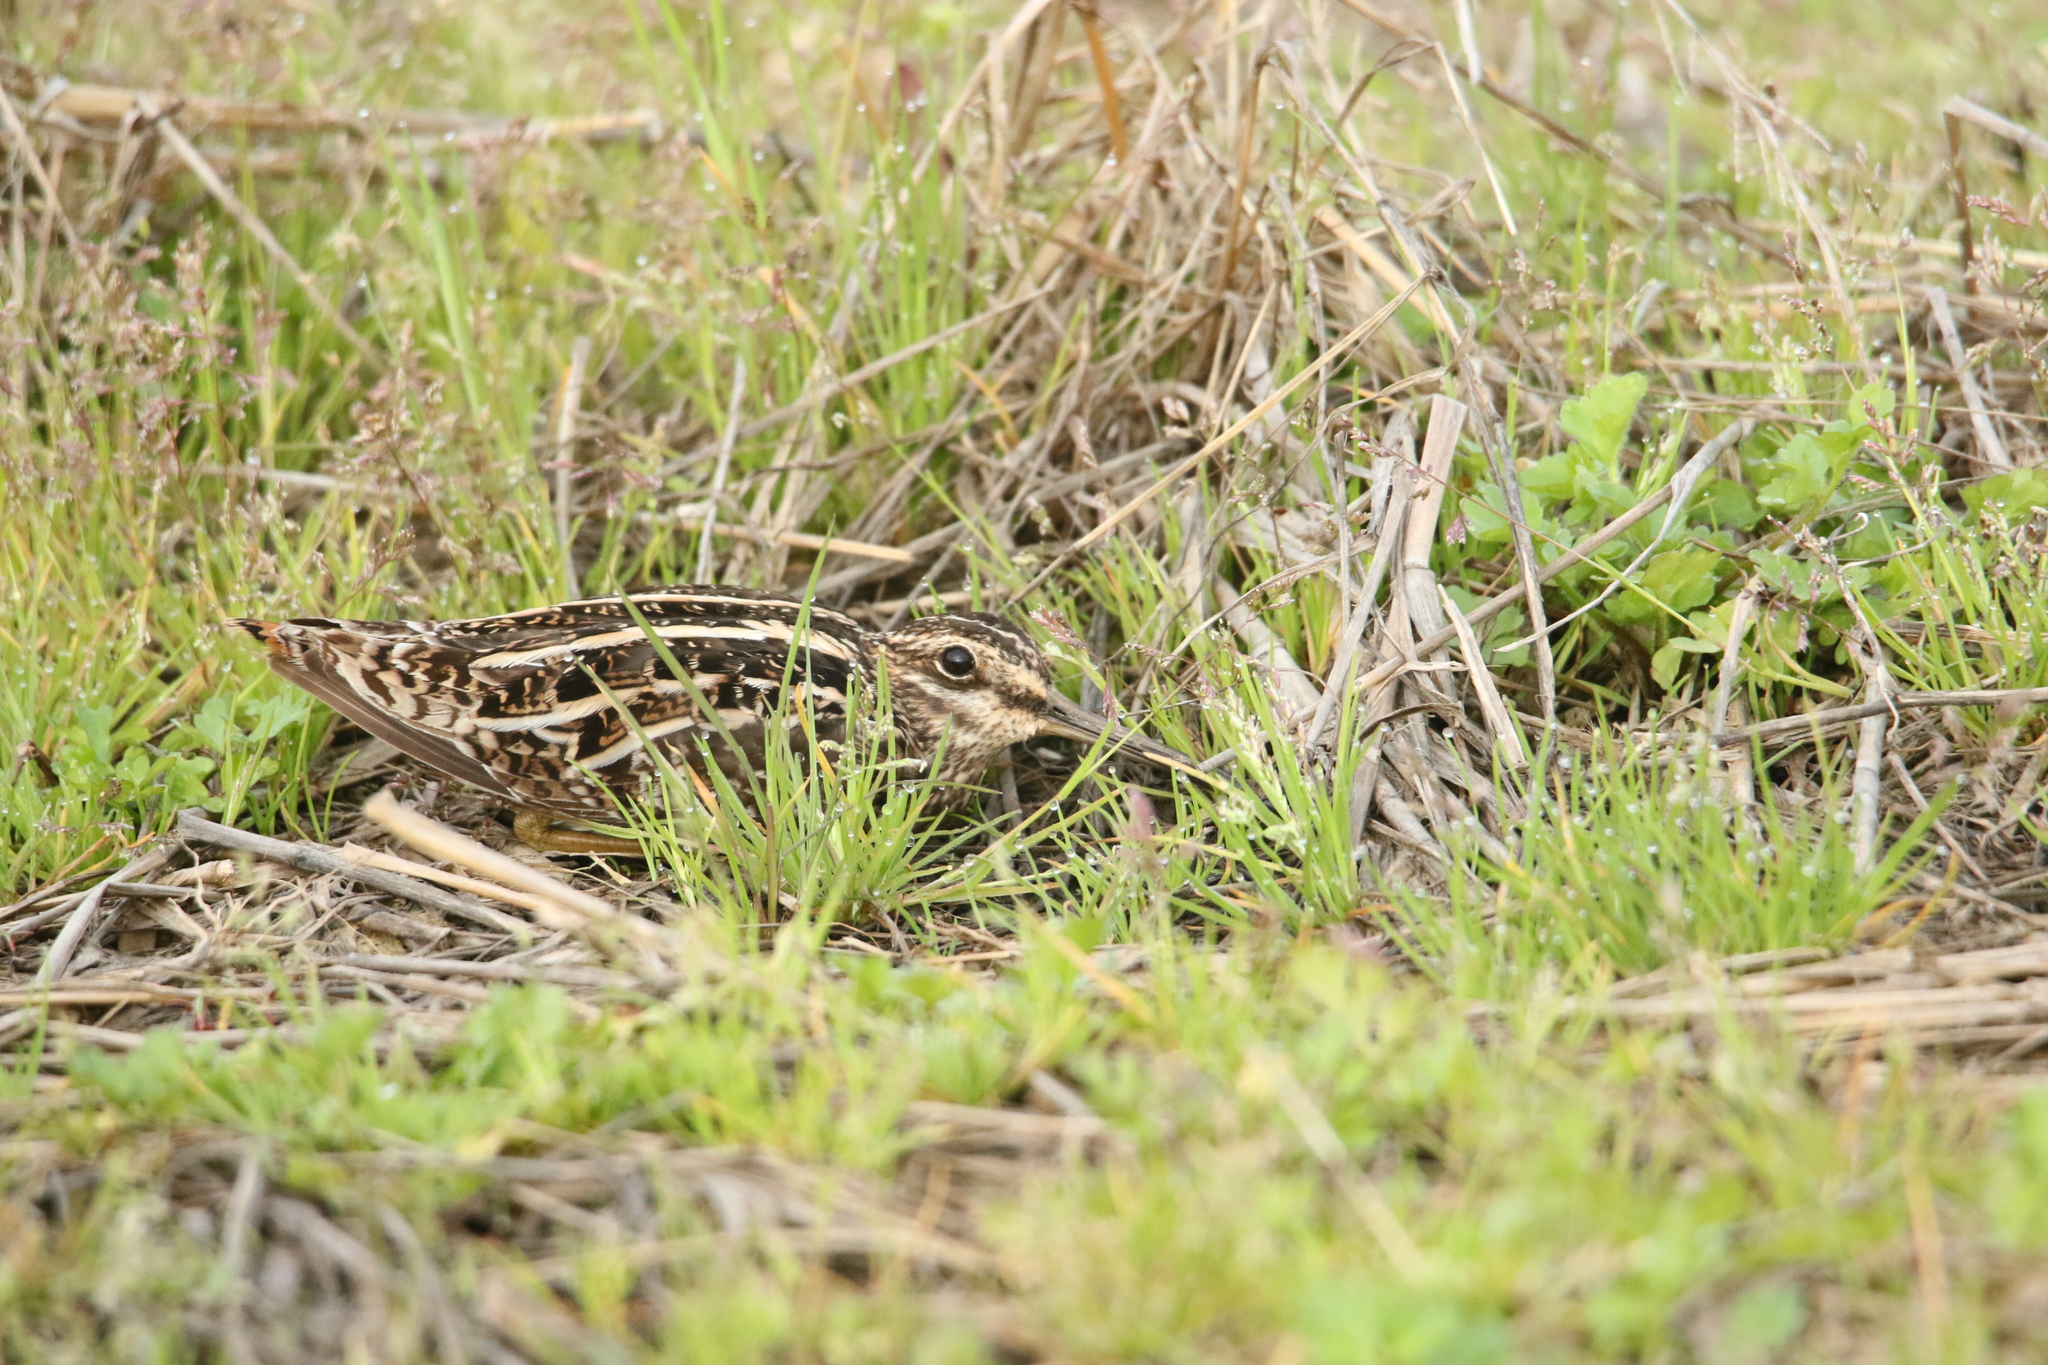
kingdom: Animalia
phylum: Chordata
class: Aves
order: Charadriiformes
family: Scolopacidae
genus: Gallinago
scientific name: Gallinago delicata
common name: Wilson's snipe
